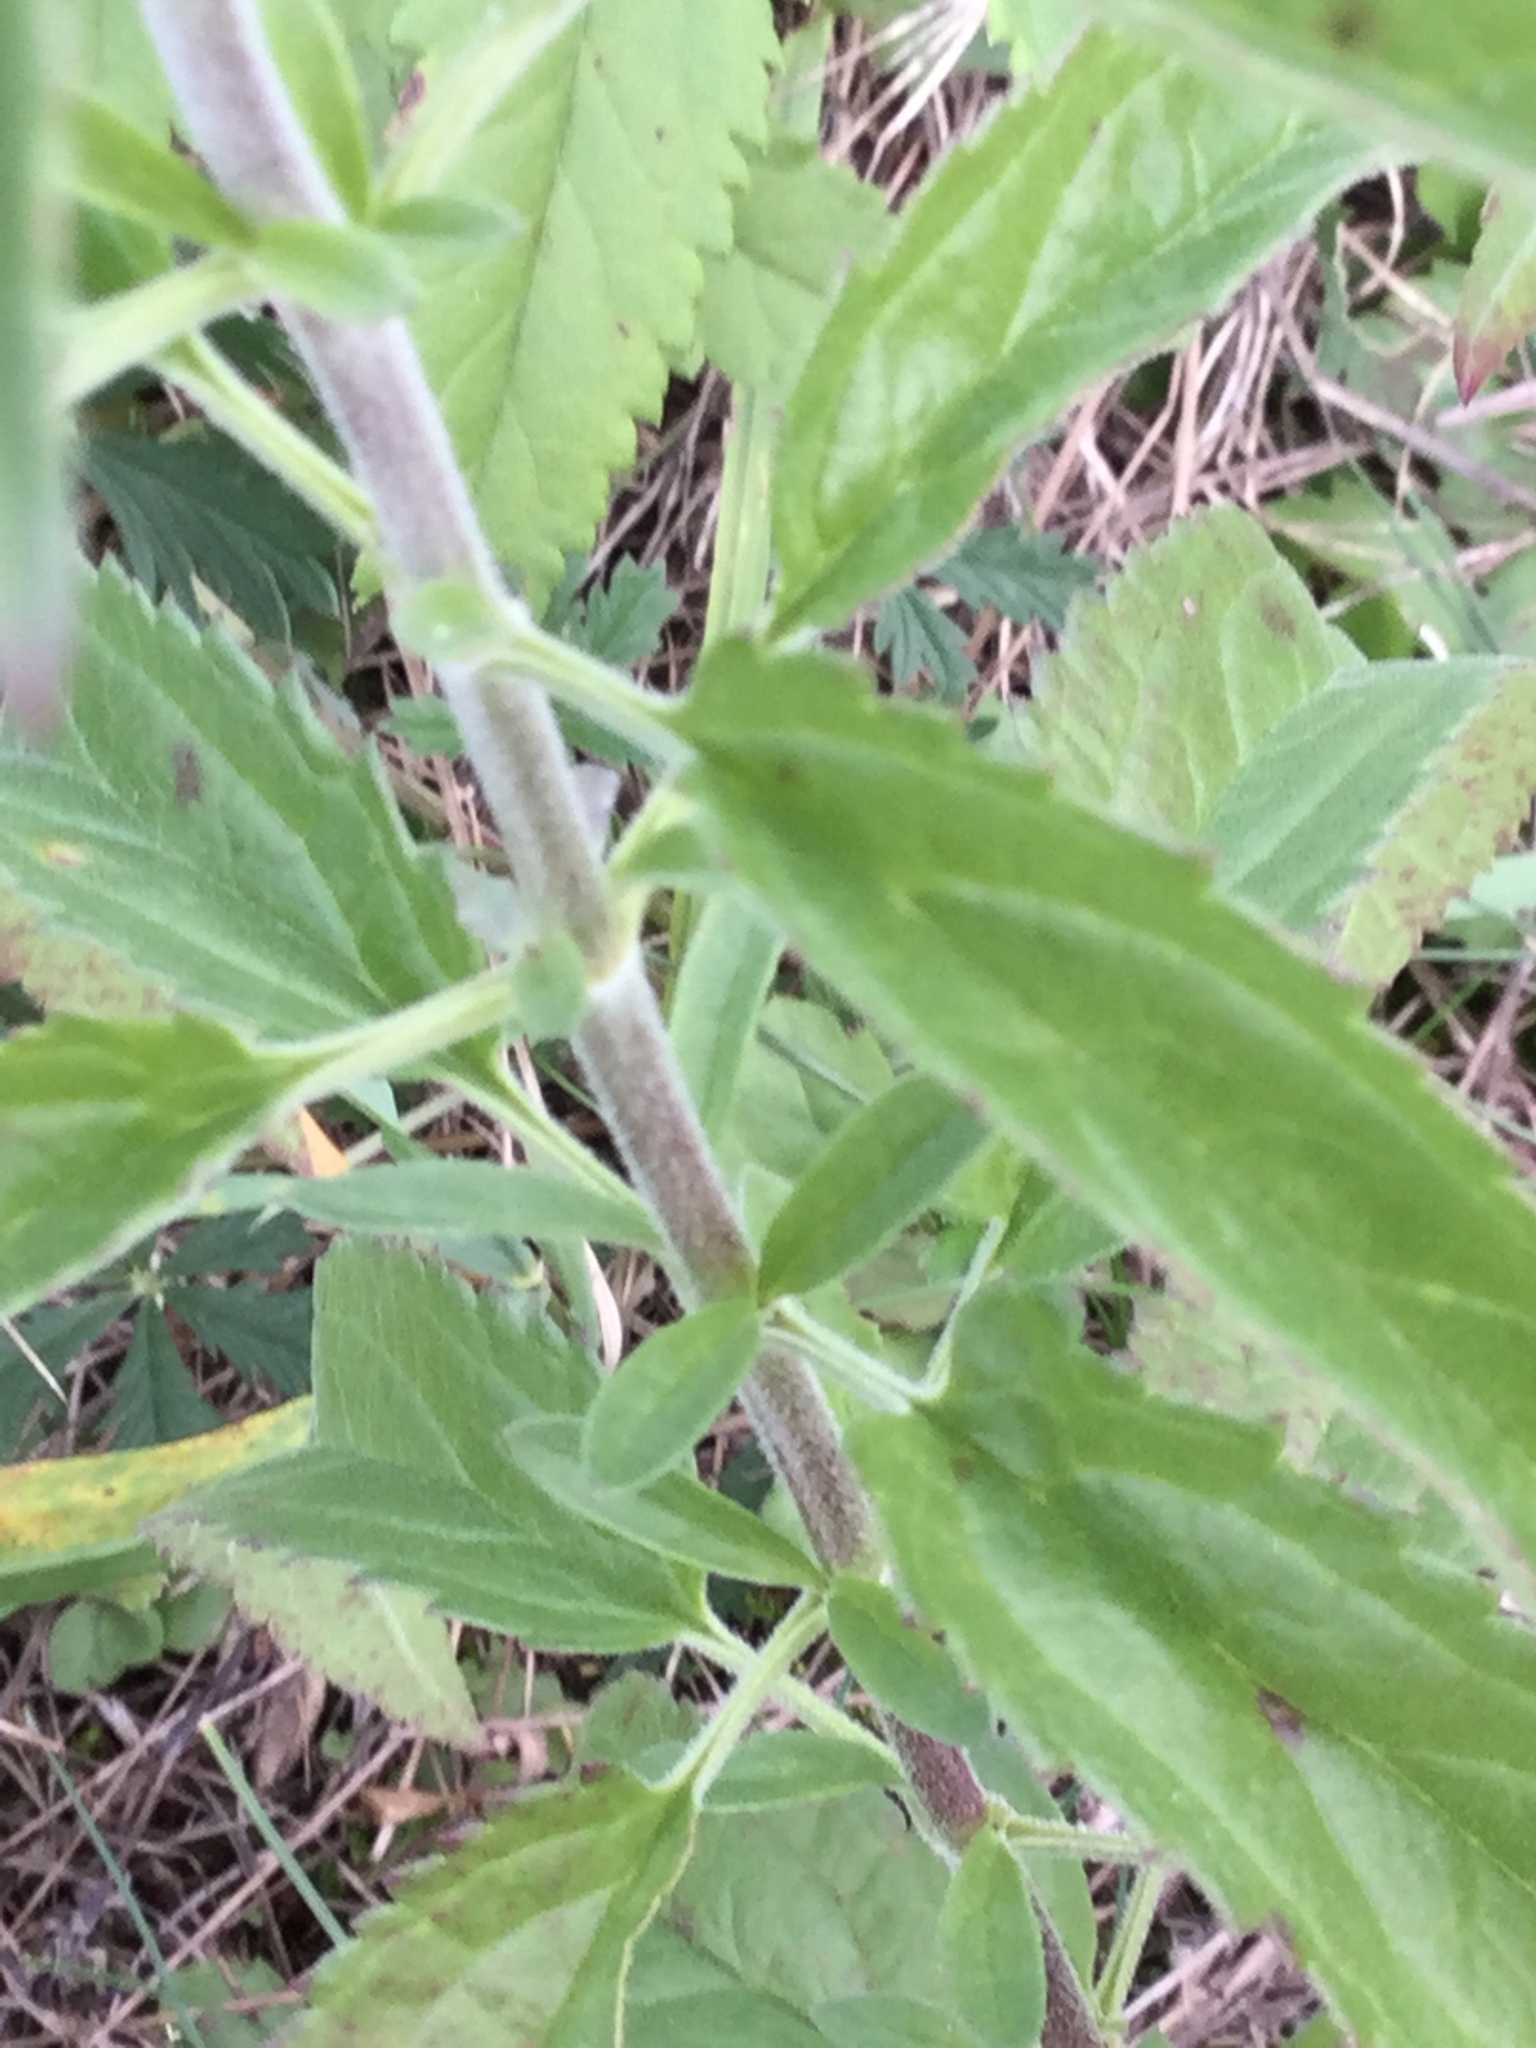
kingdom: Plantae
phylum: Tracheophyta
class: Magnoliopsida
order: Lamiales
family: Plantaginaceae
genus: Veronica
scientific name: Veronica longifolia
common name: Garden speedwell
